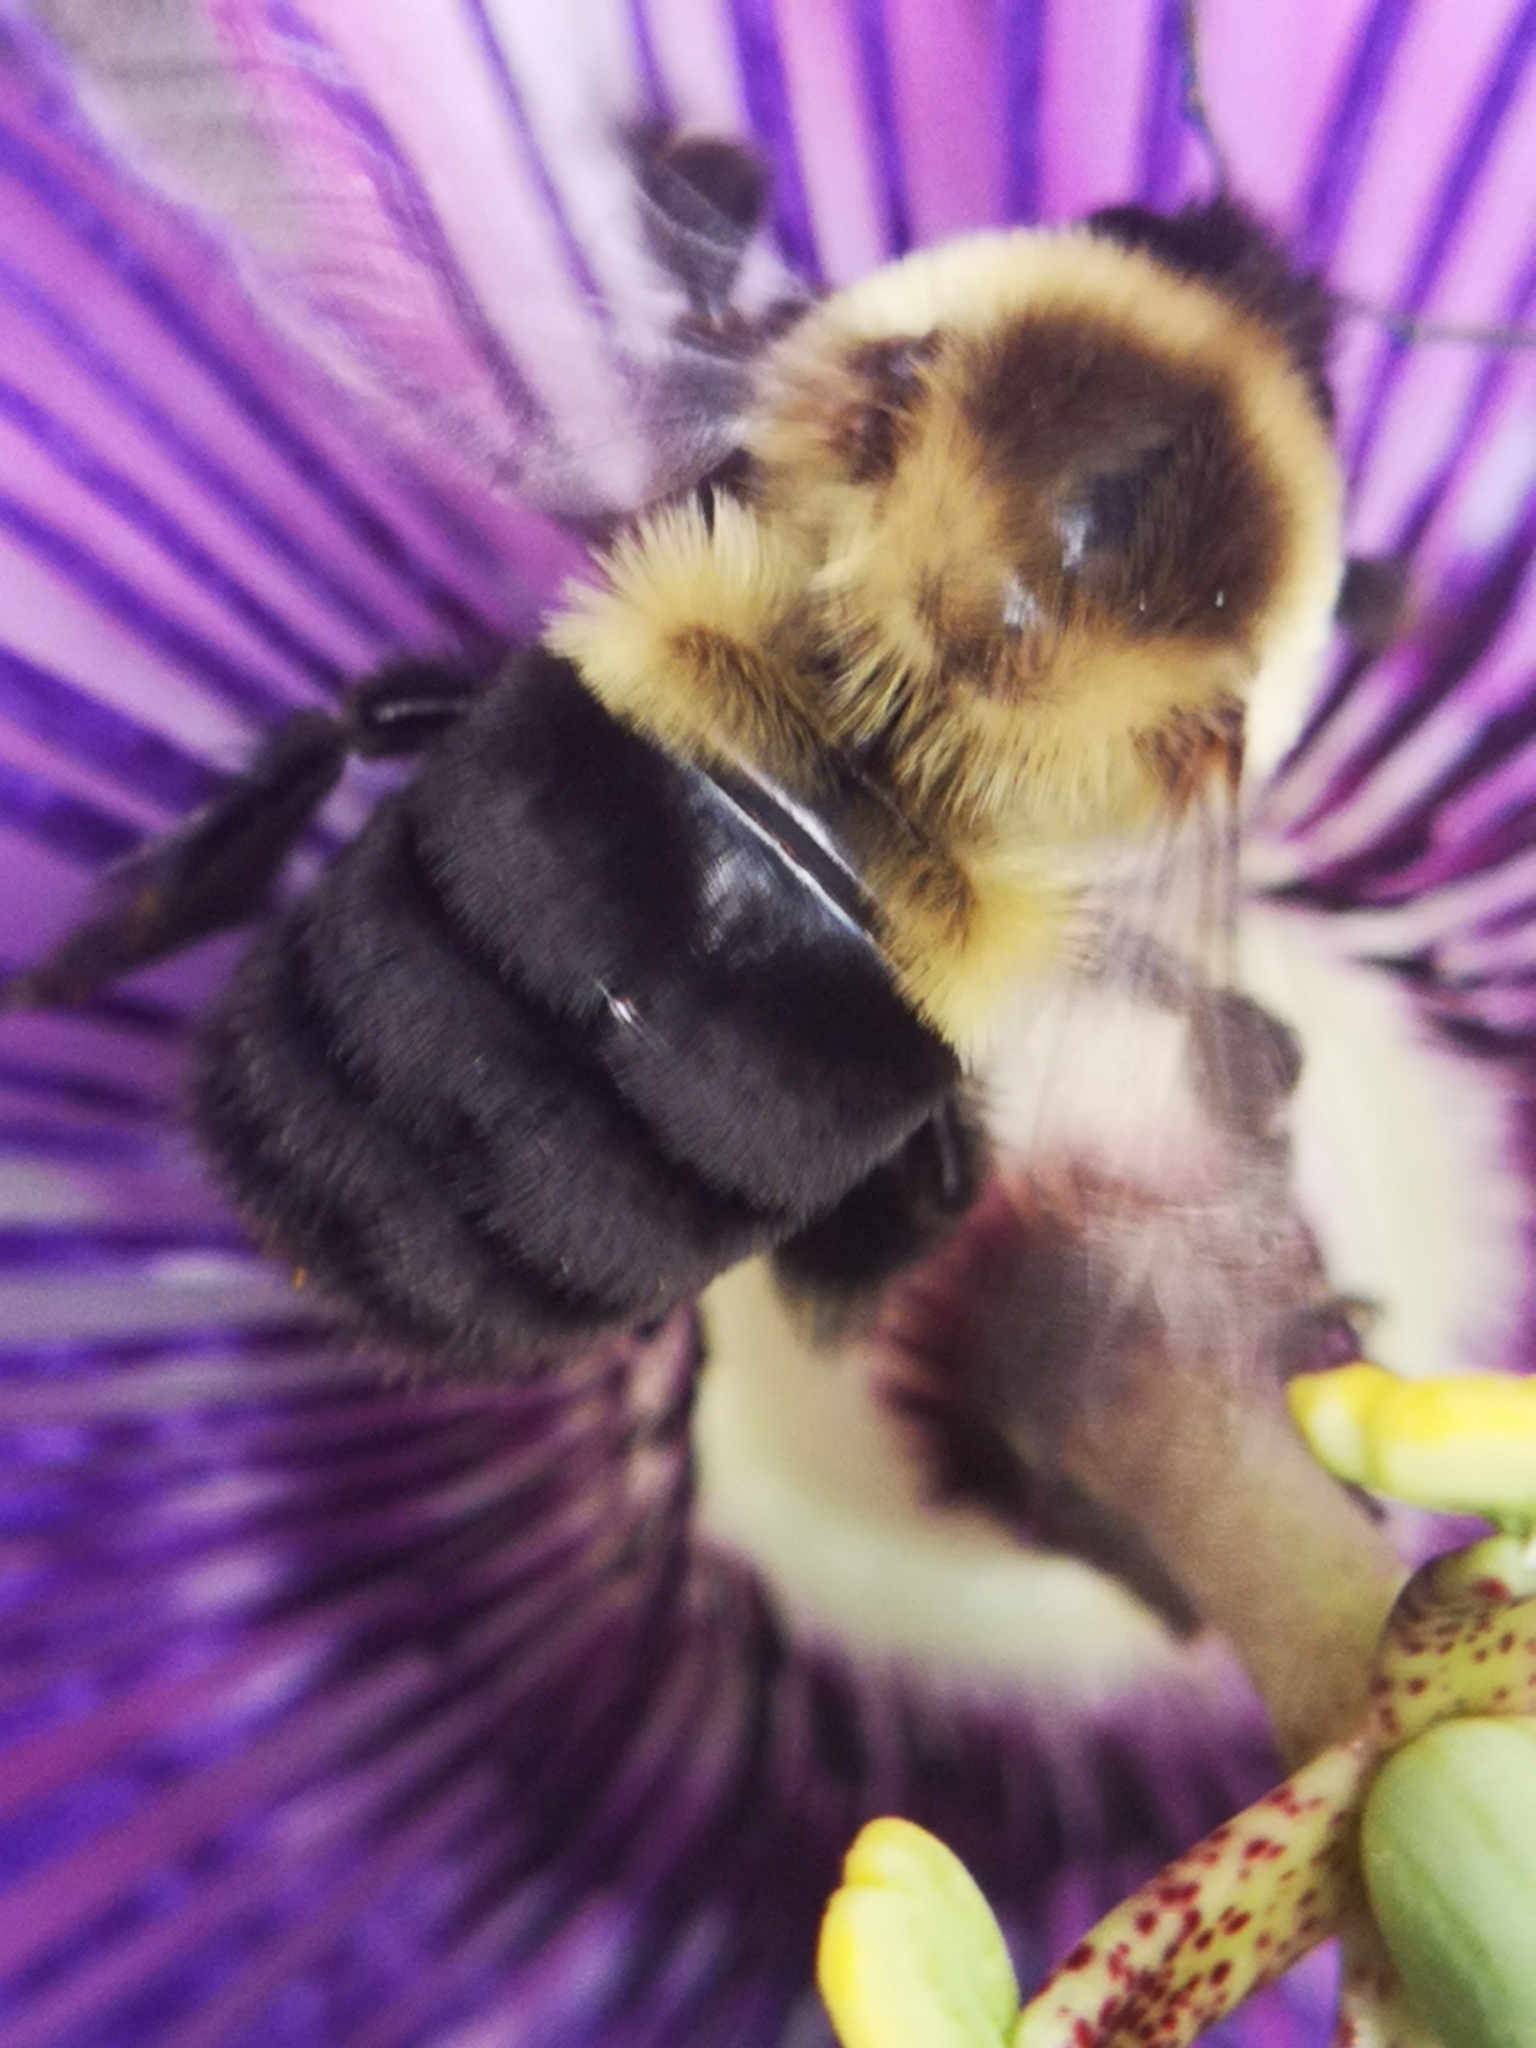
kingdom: Animalia
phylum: Arthropoda
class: Insecta
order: Hymenoptera
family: Apidae
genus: Bombus
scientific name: Bombus impatiens
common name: Common eastern bumble bee
